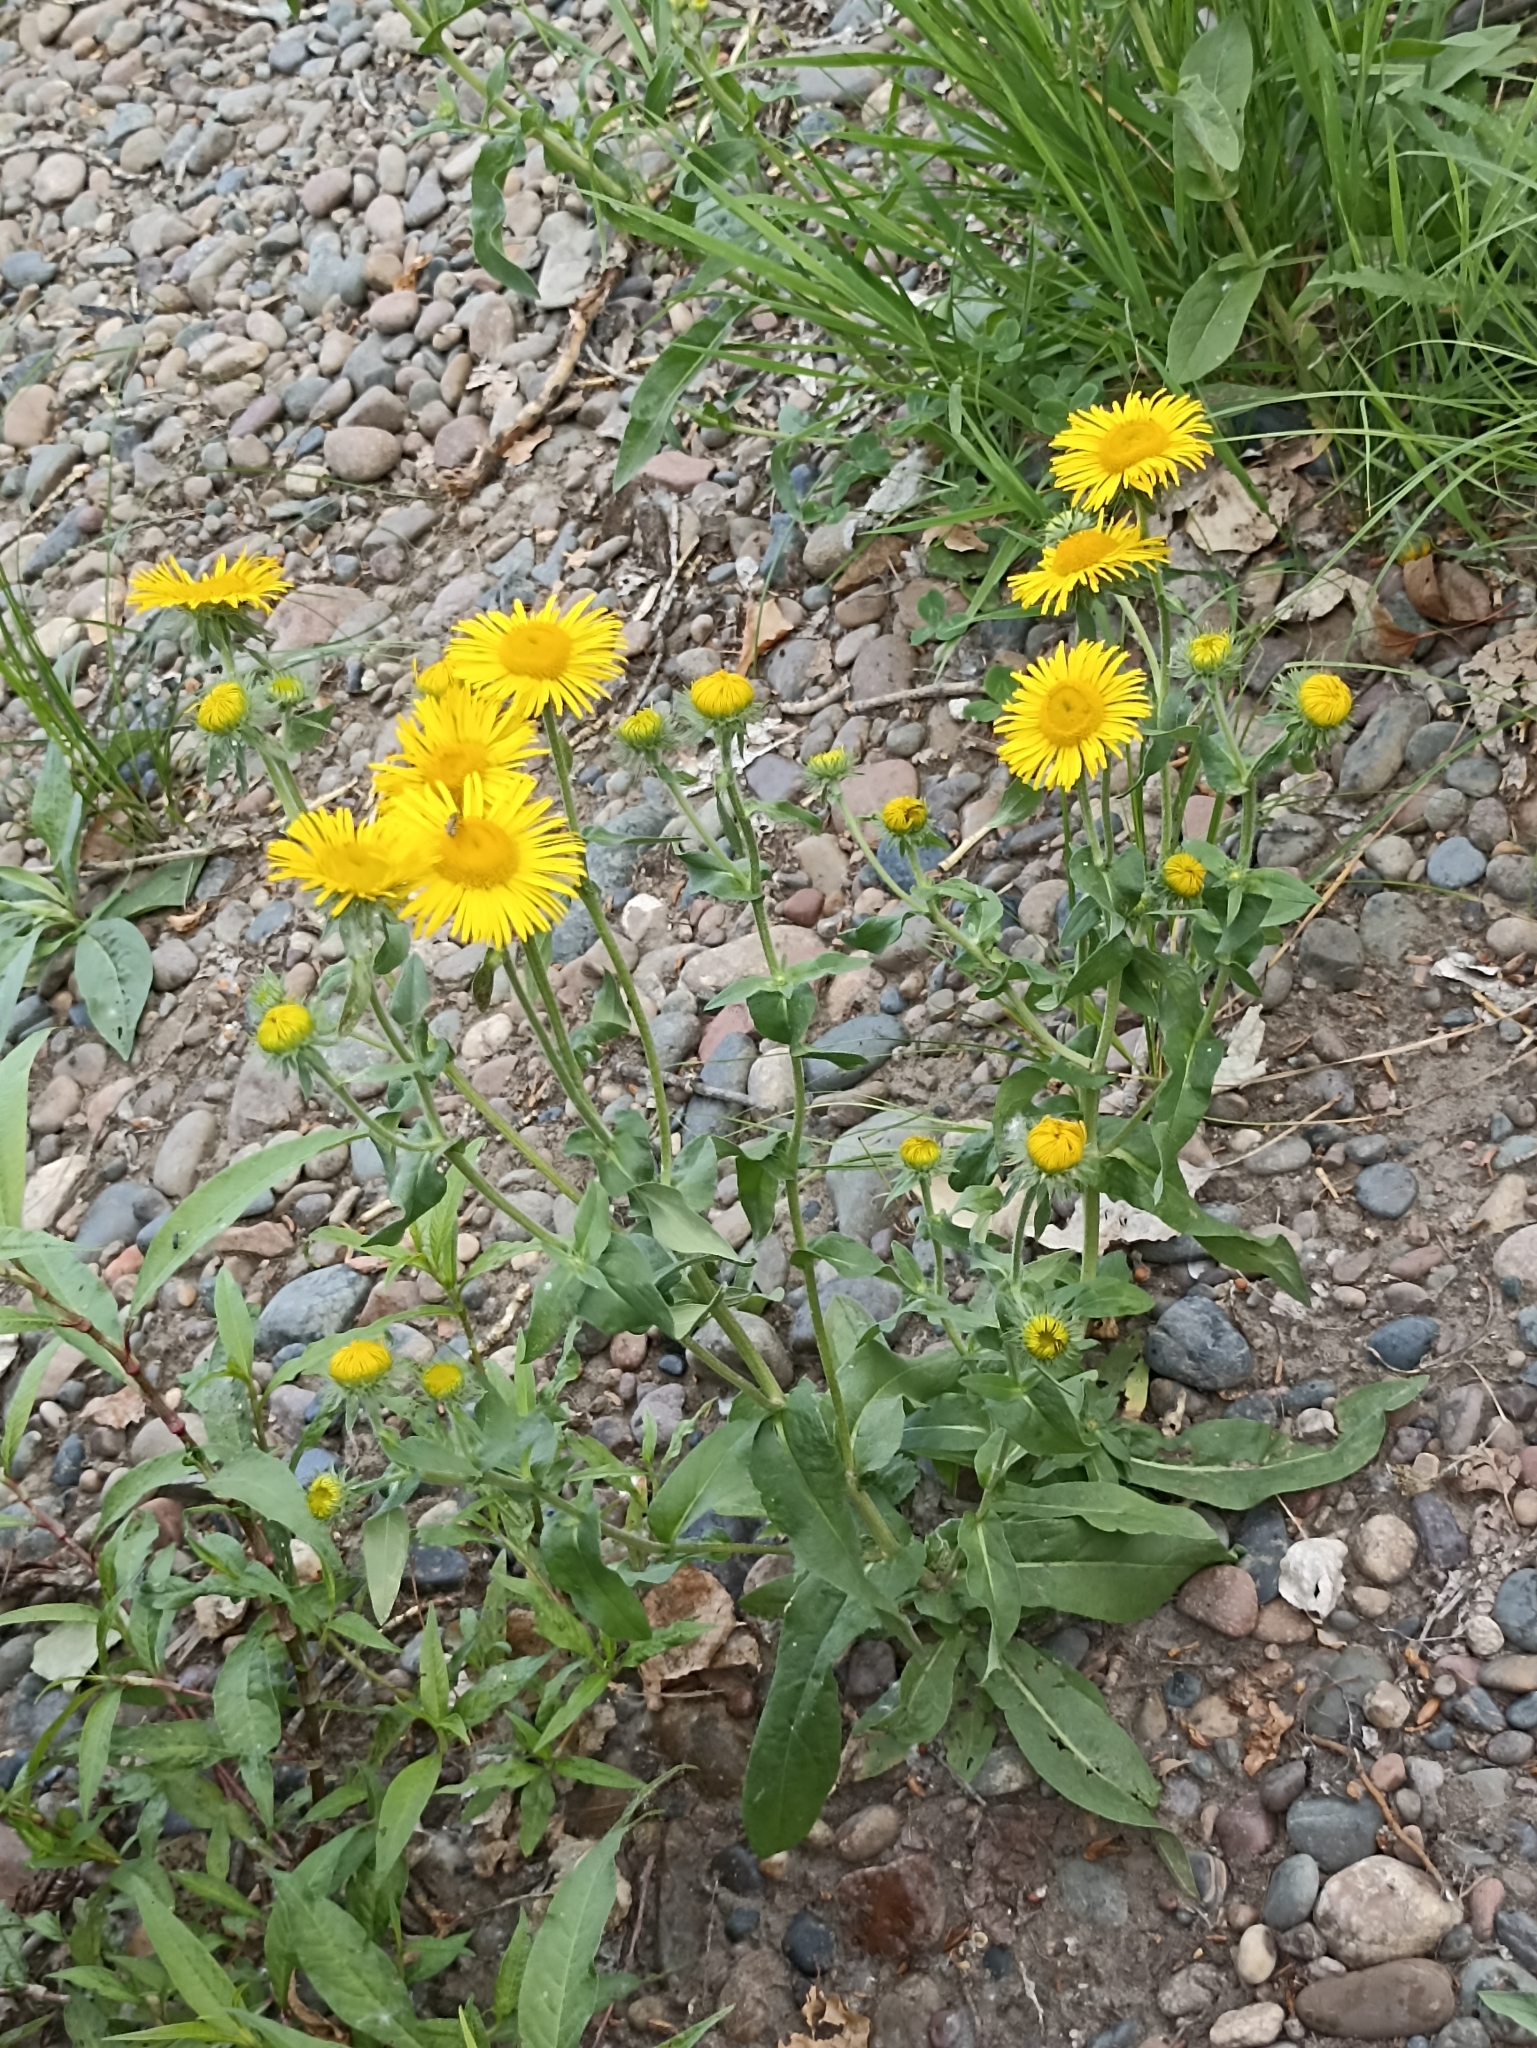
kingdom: Plantae
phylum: Tracheophyta
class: Magnoliopsida
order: Asterales
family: Asteraceae
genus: Pentanema
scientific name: Pentanema britannicum
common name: British elecampane
